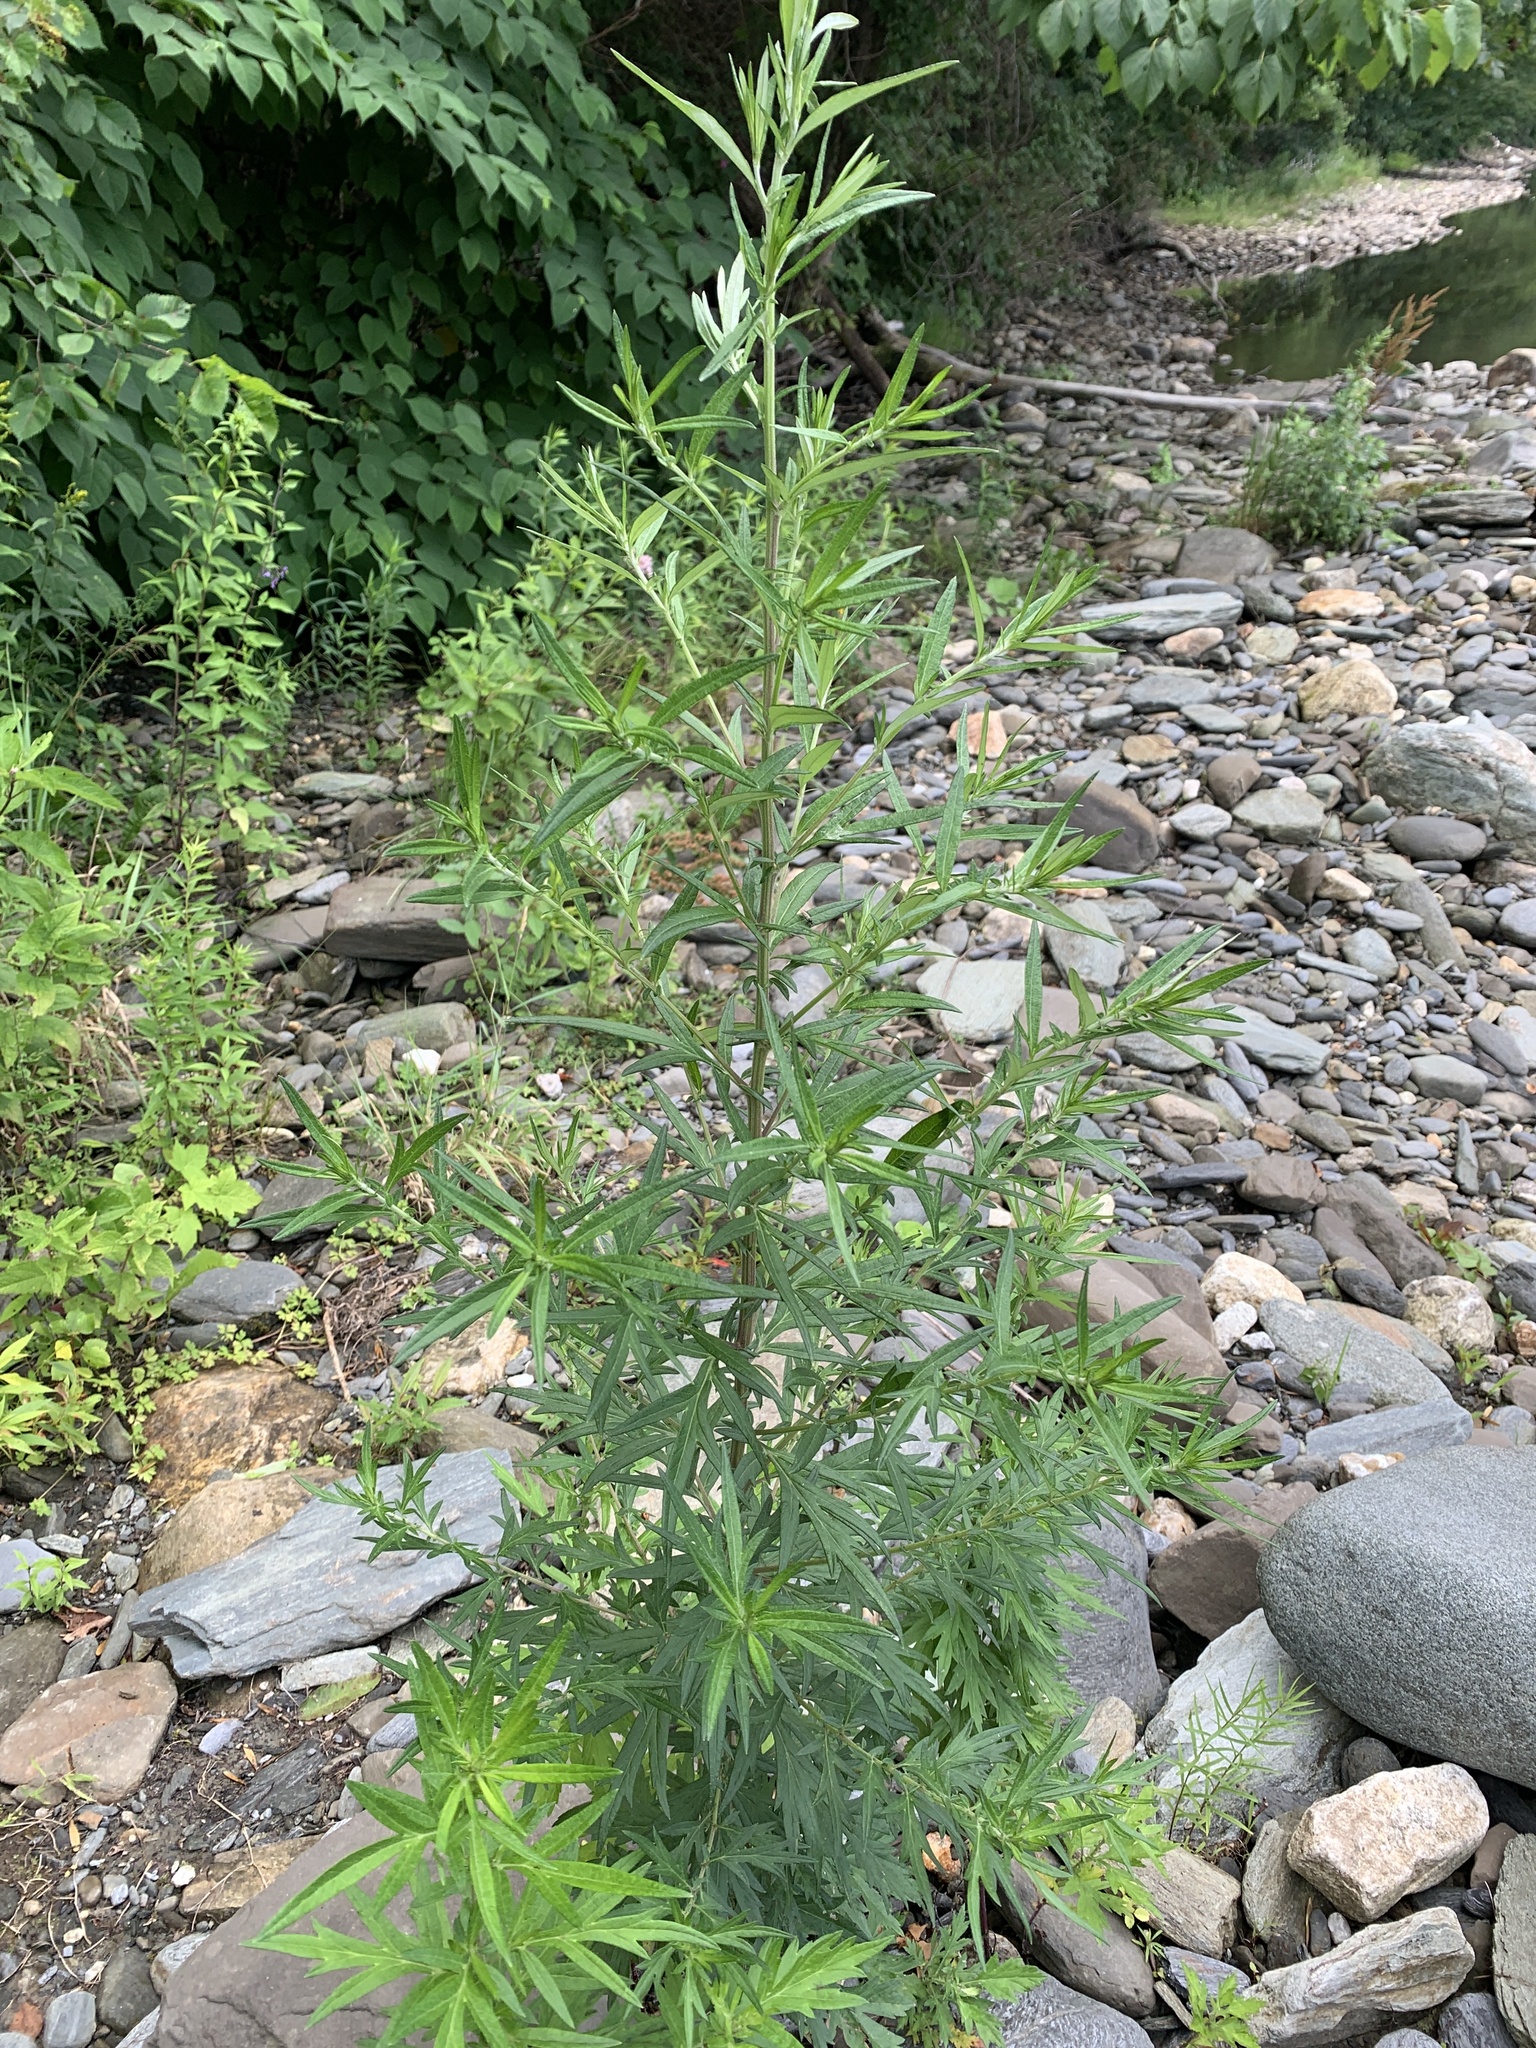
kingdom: Plantae
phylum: Tracheophyta
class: Magnoliopsida
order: Asterales
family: Asteraceae
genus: Artemisia
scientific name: Artemisia vulgaris
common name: Mugwort
